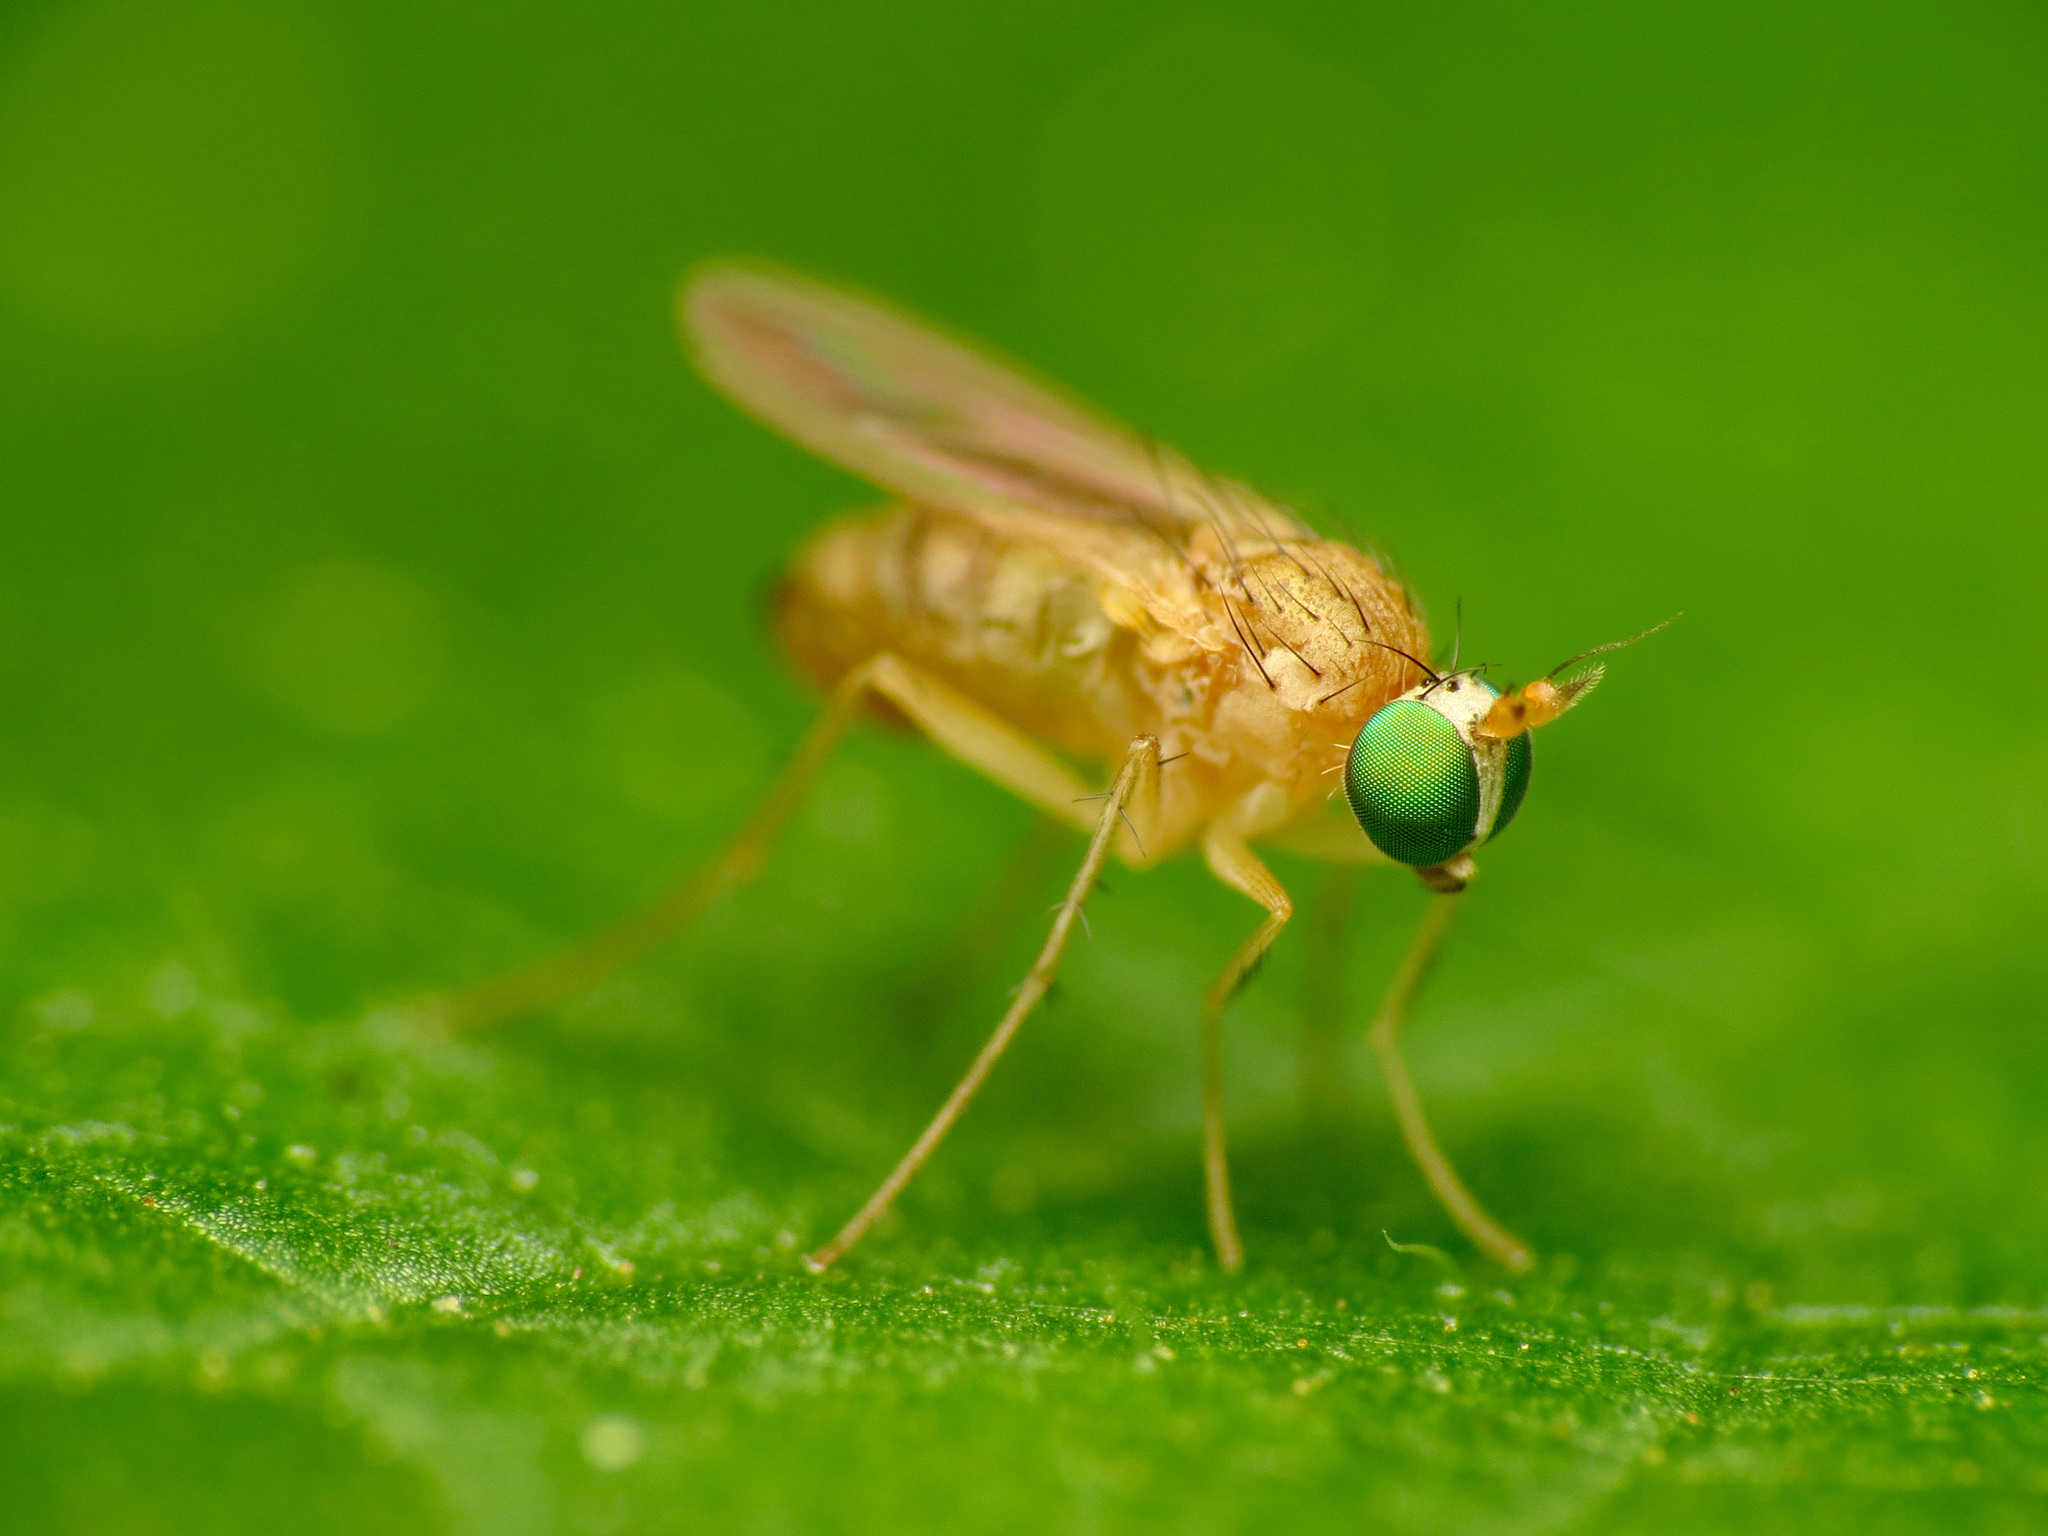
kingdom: Animalia
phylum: Arthropoda
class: Insecta
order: Diptera
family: Dolichopodidae
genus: Gymnopternus
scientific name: Gymnopternus flavus
